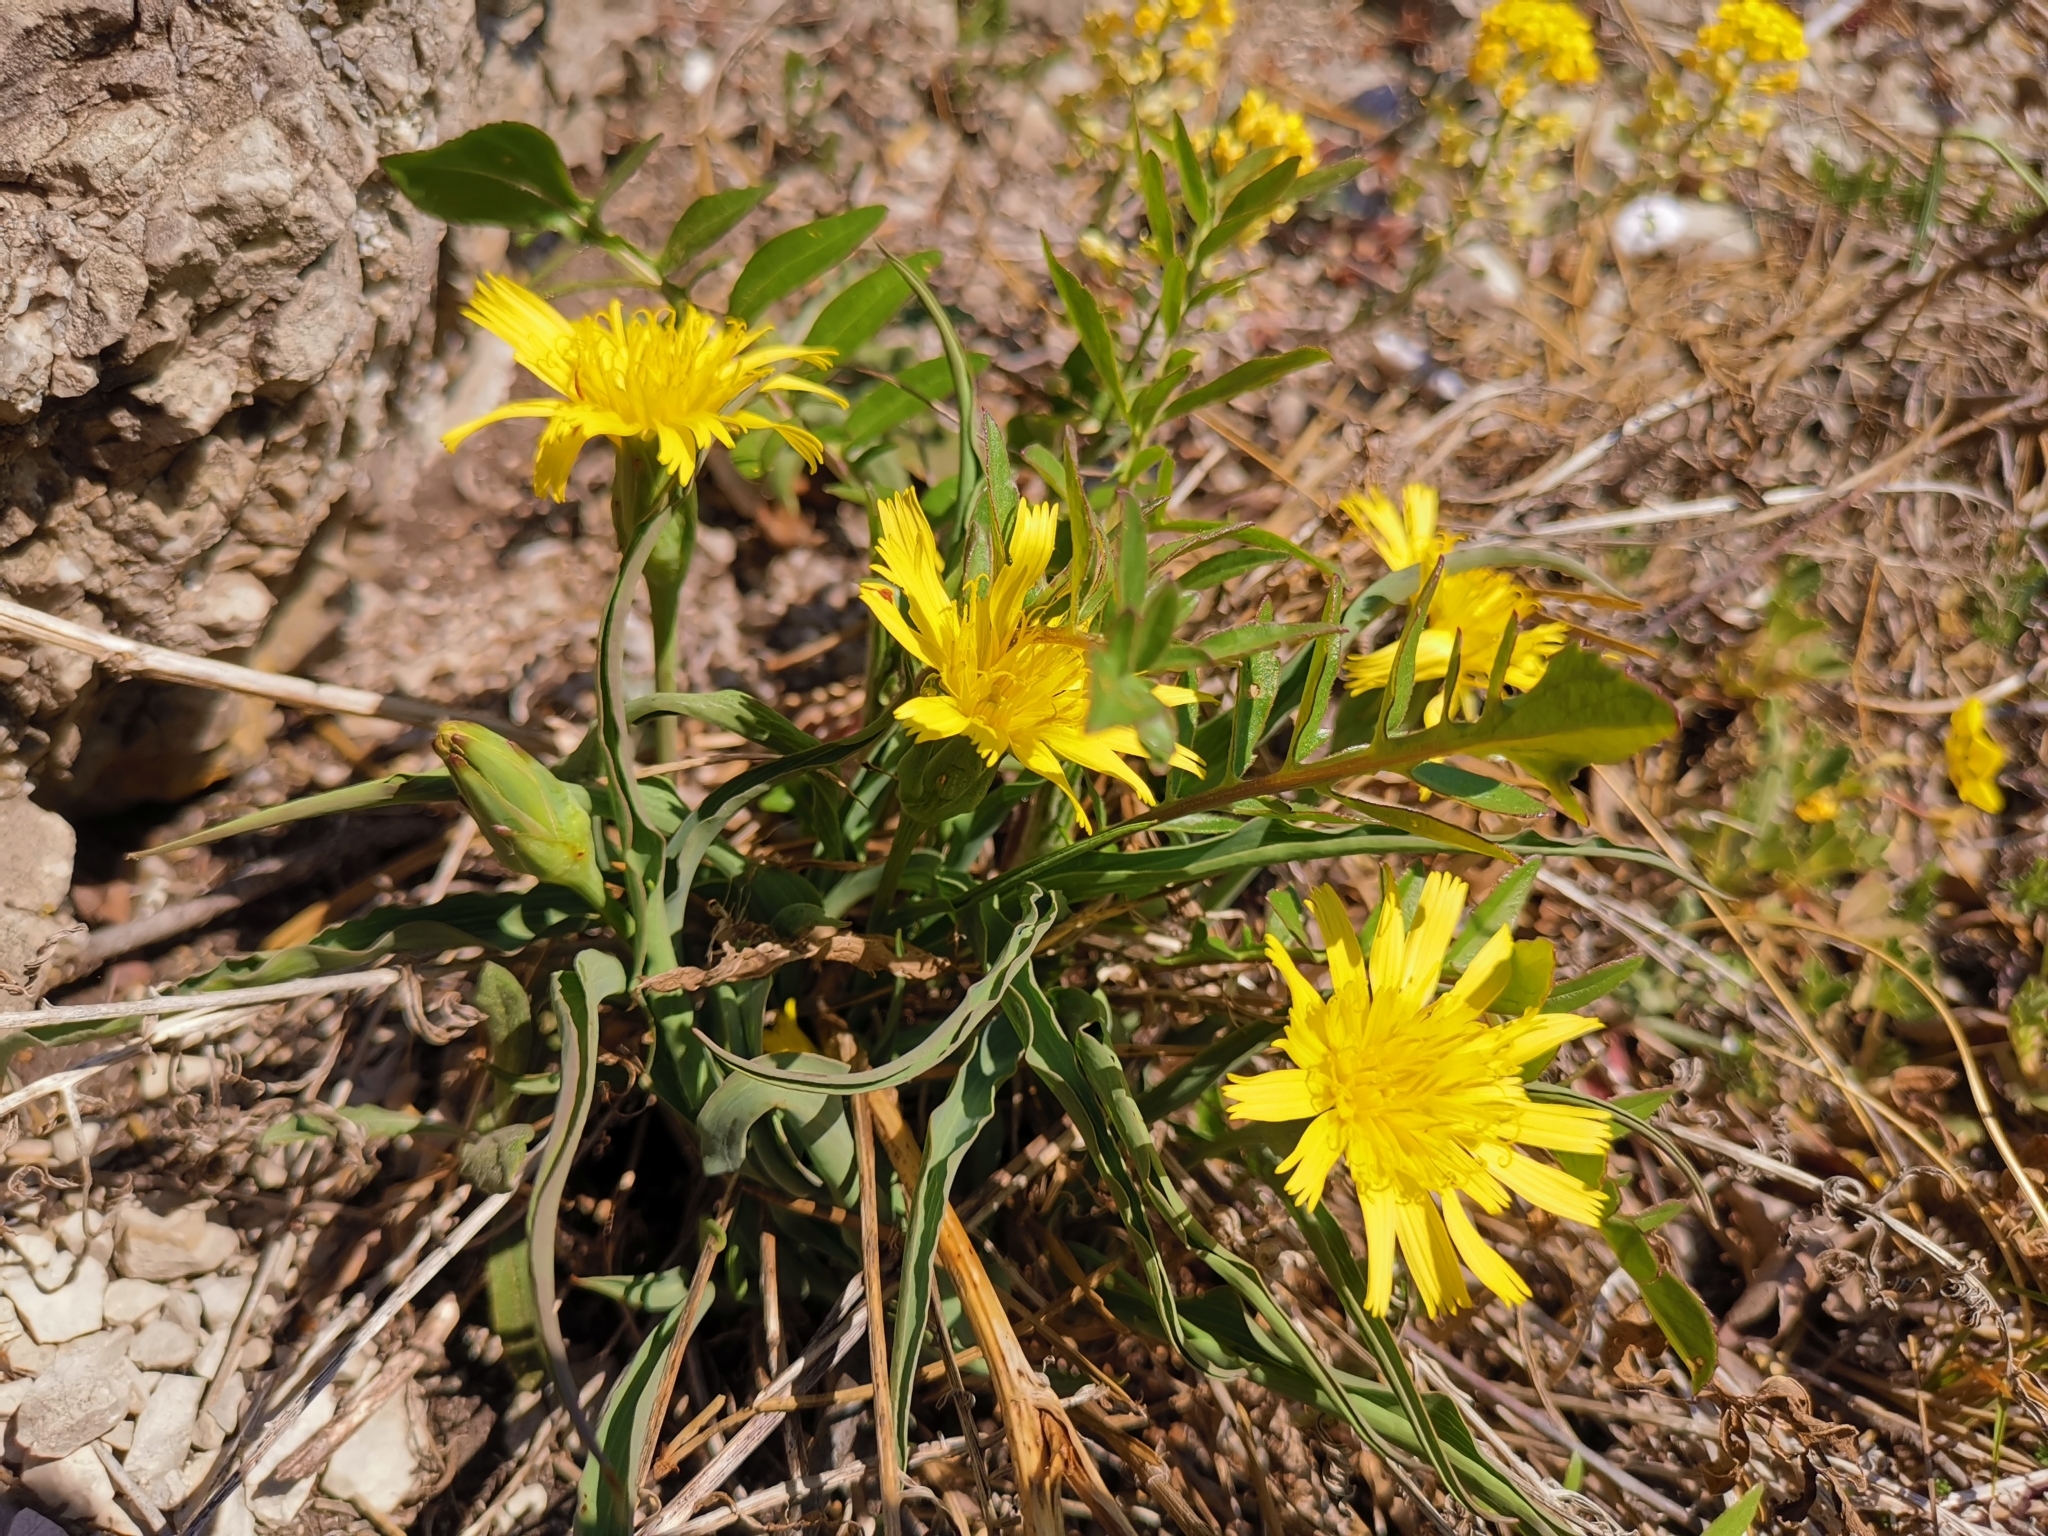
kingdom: Plantae
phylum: Tracheophyta
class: Magnoliopsida
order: Asterales
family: Asteraceae
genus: Takhtajaniantha
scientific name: Takhtajaniantha austriaca
